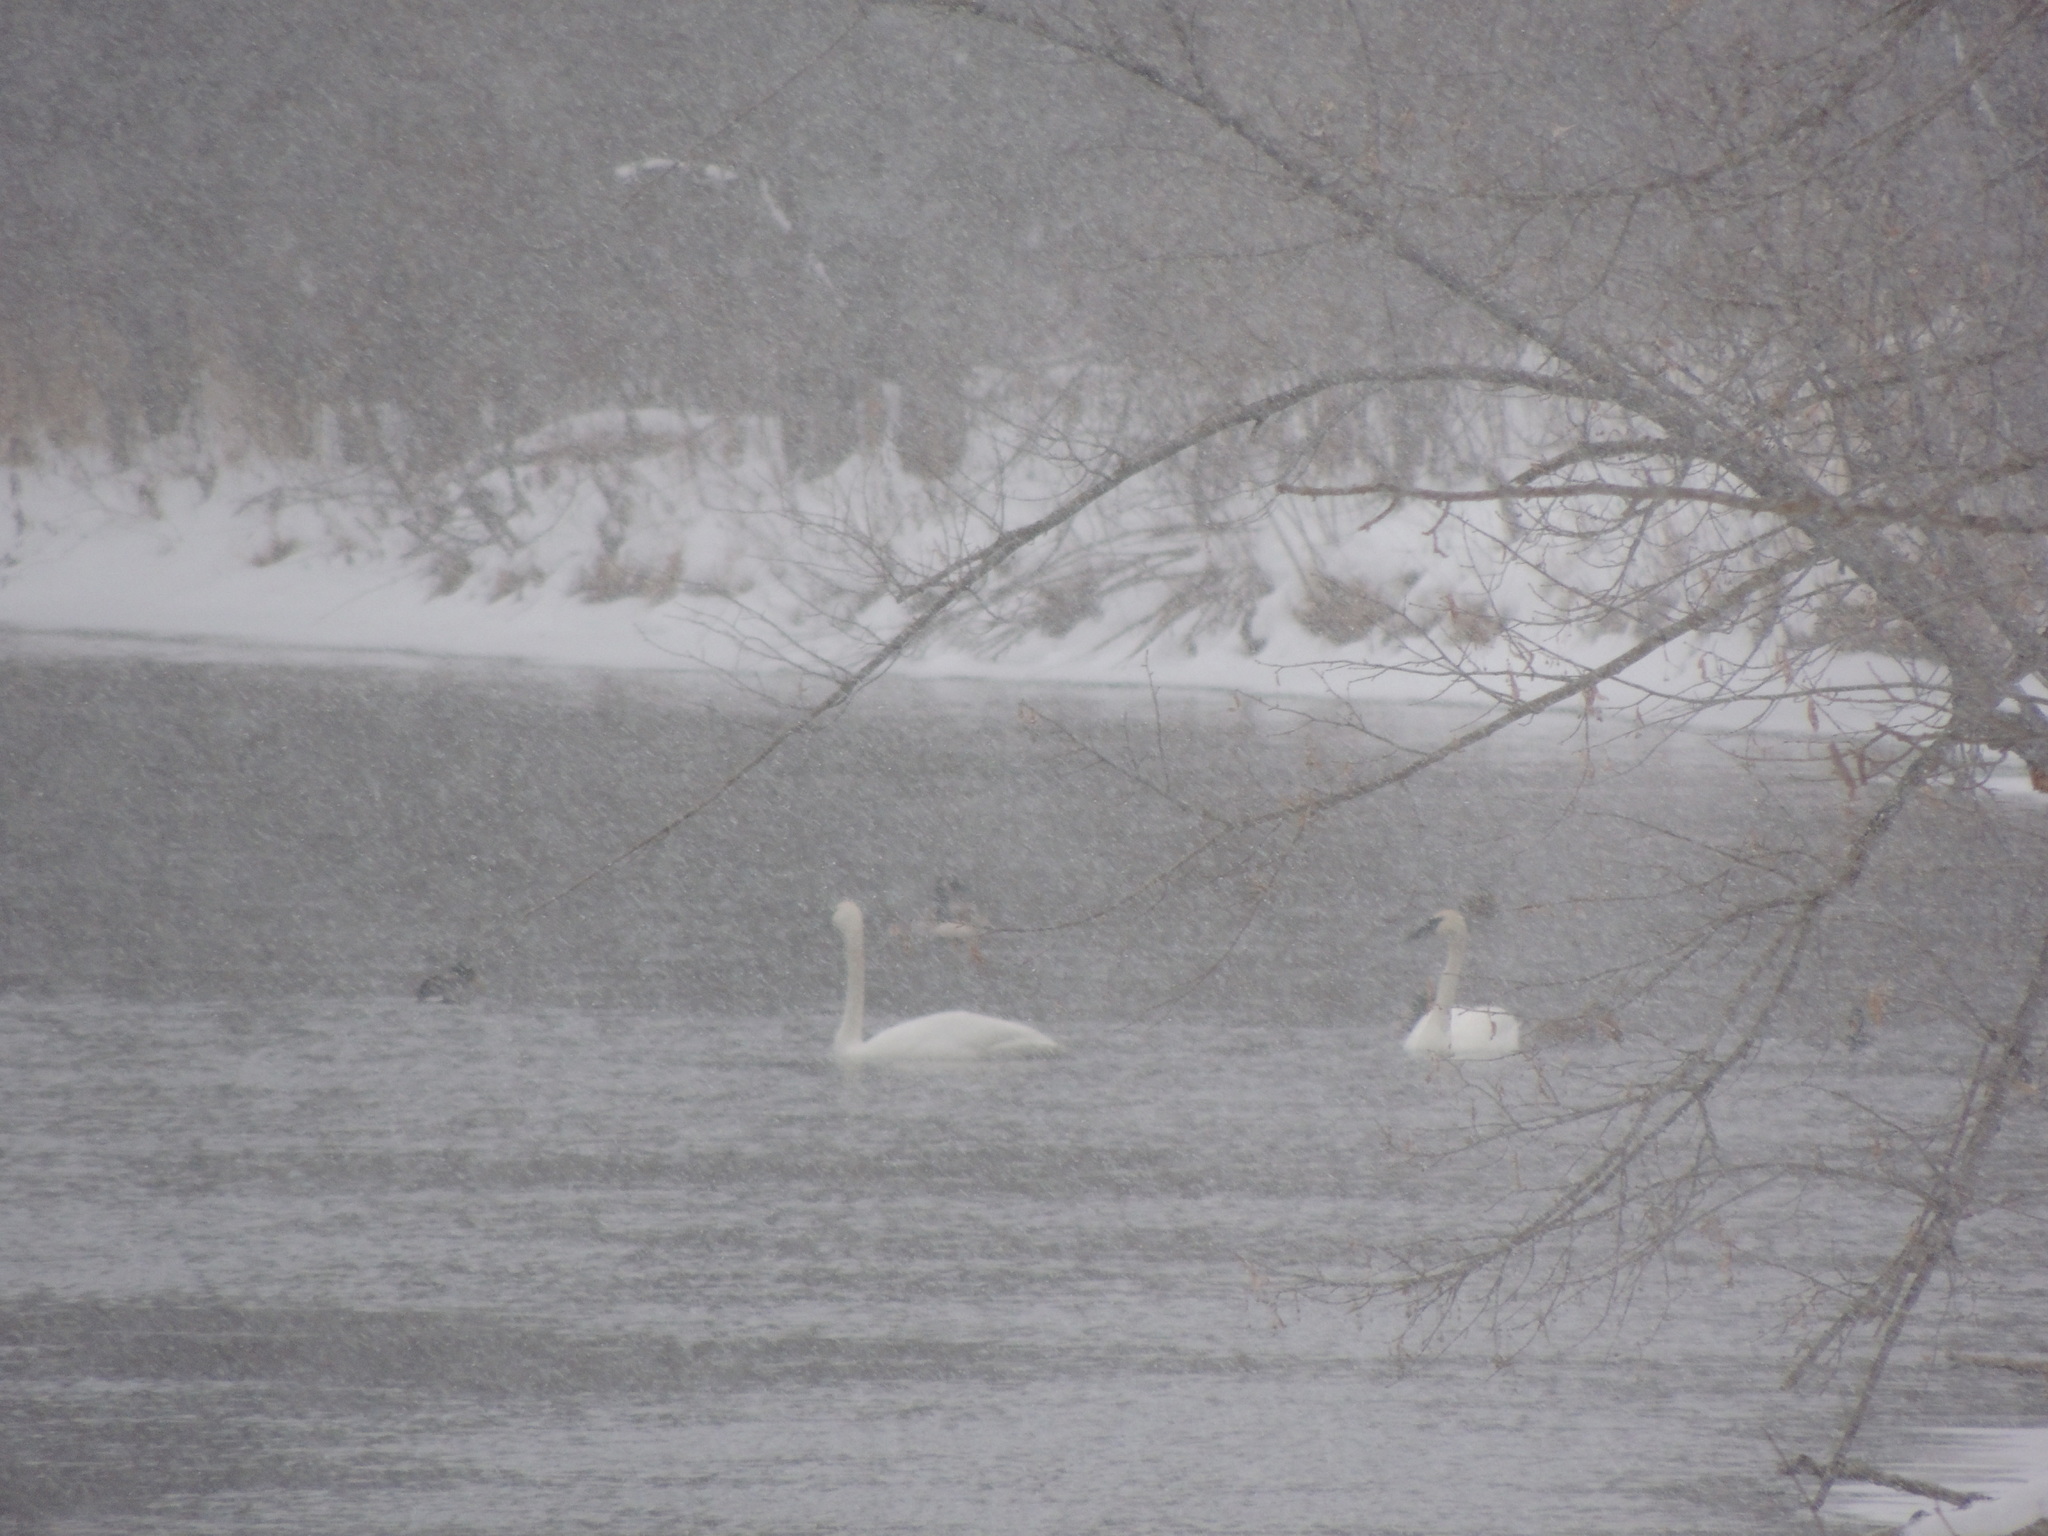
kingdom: Animalia
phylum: Chordata
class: Aves
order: Anseriformes
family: Anatidae
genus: Cygnus
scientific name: Cygnus buccinator
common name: Trumpeter swan
